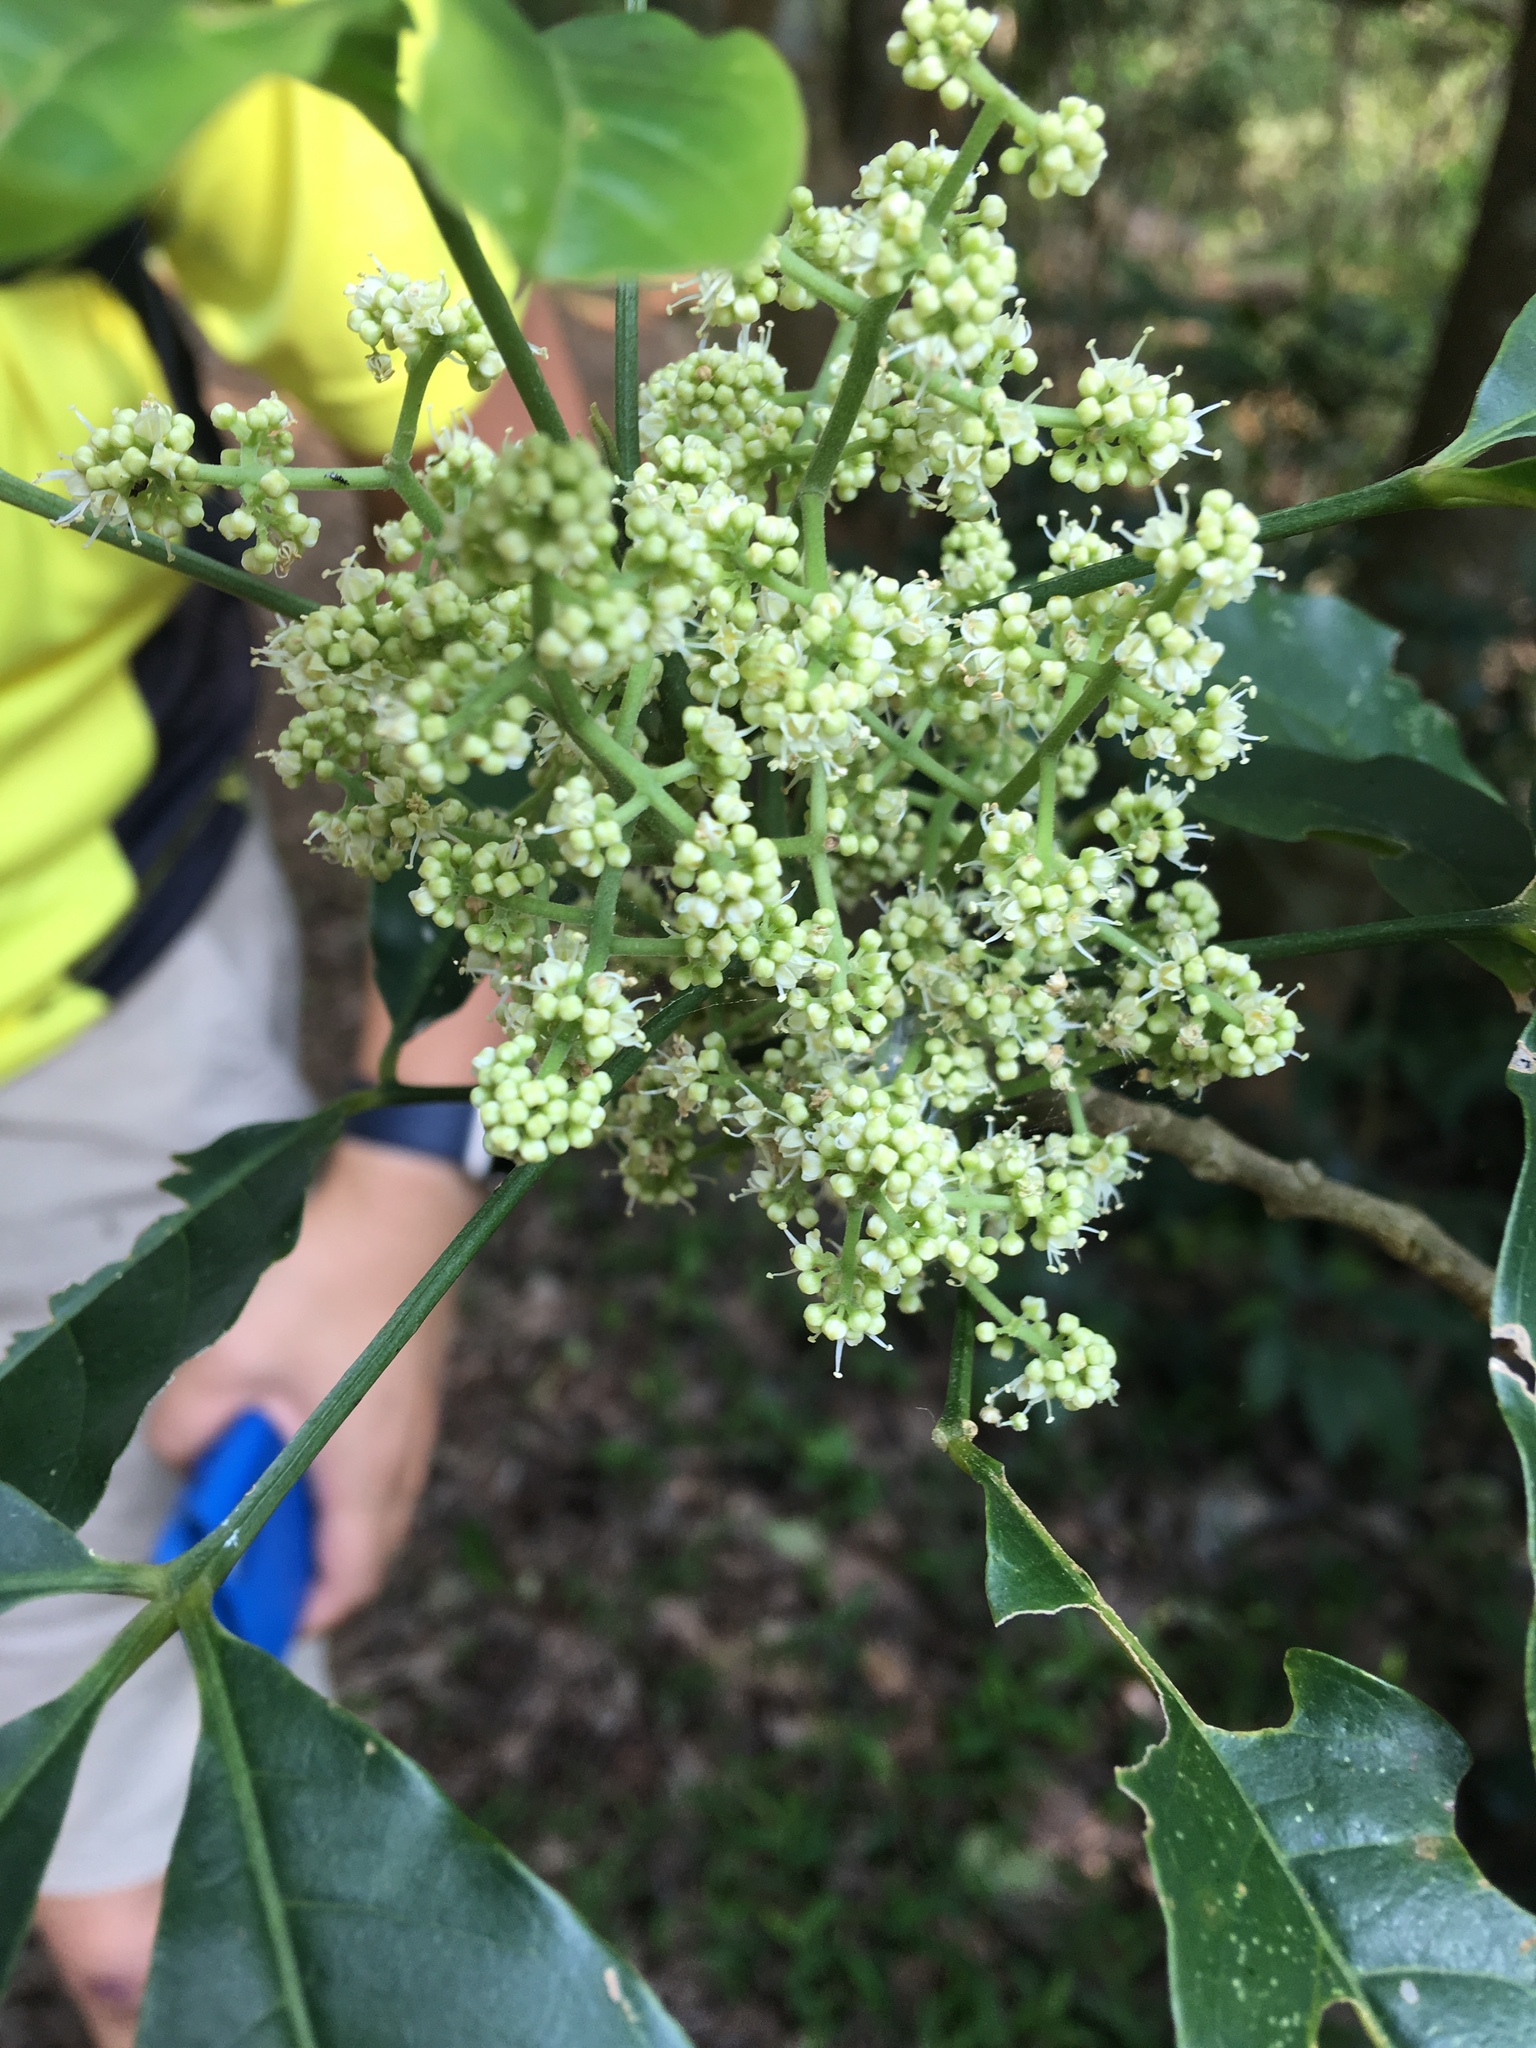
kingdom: Plantae
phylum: Tracheophyta
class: Magnoliopsida
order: Sapindales
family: Rutaceae
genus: Melicope
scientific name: Melicope pteleifolia
